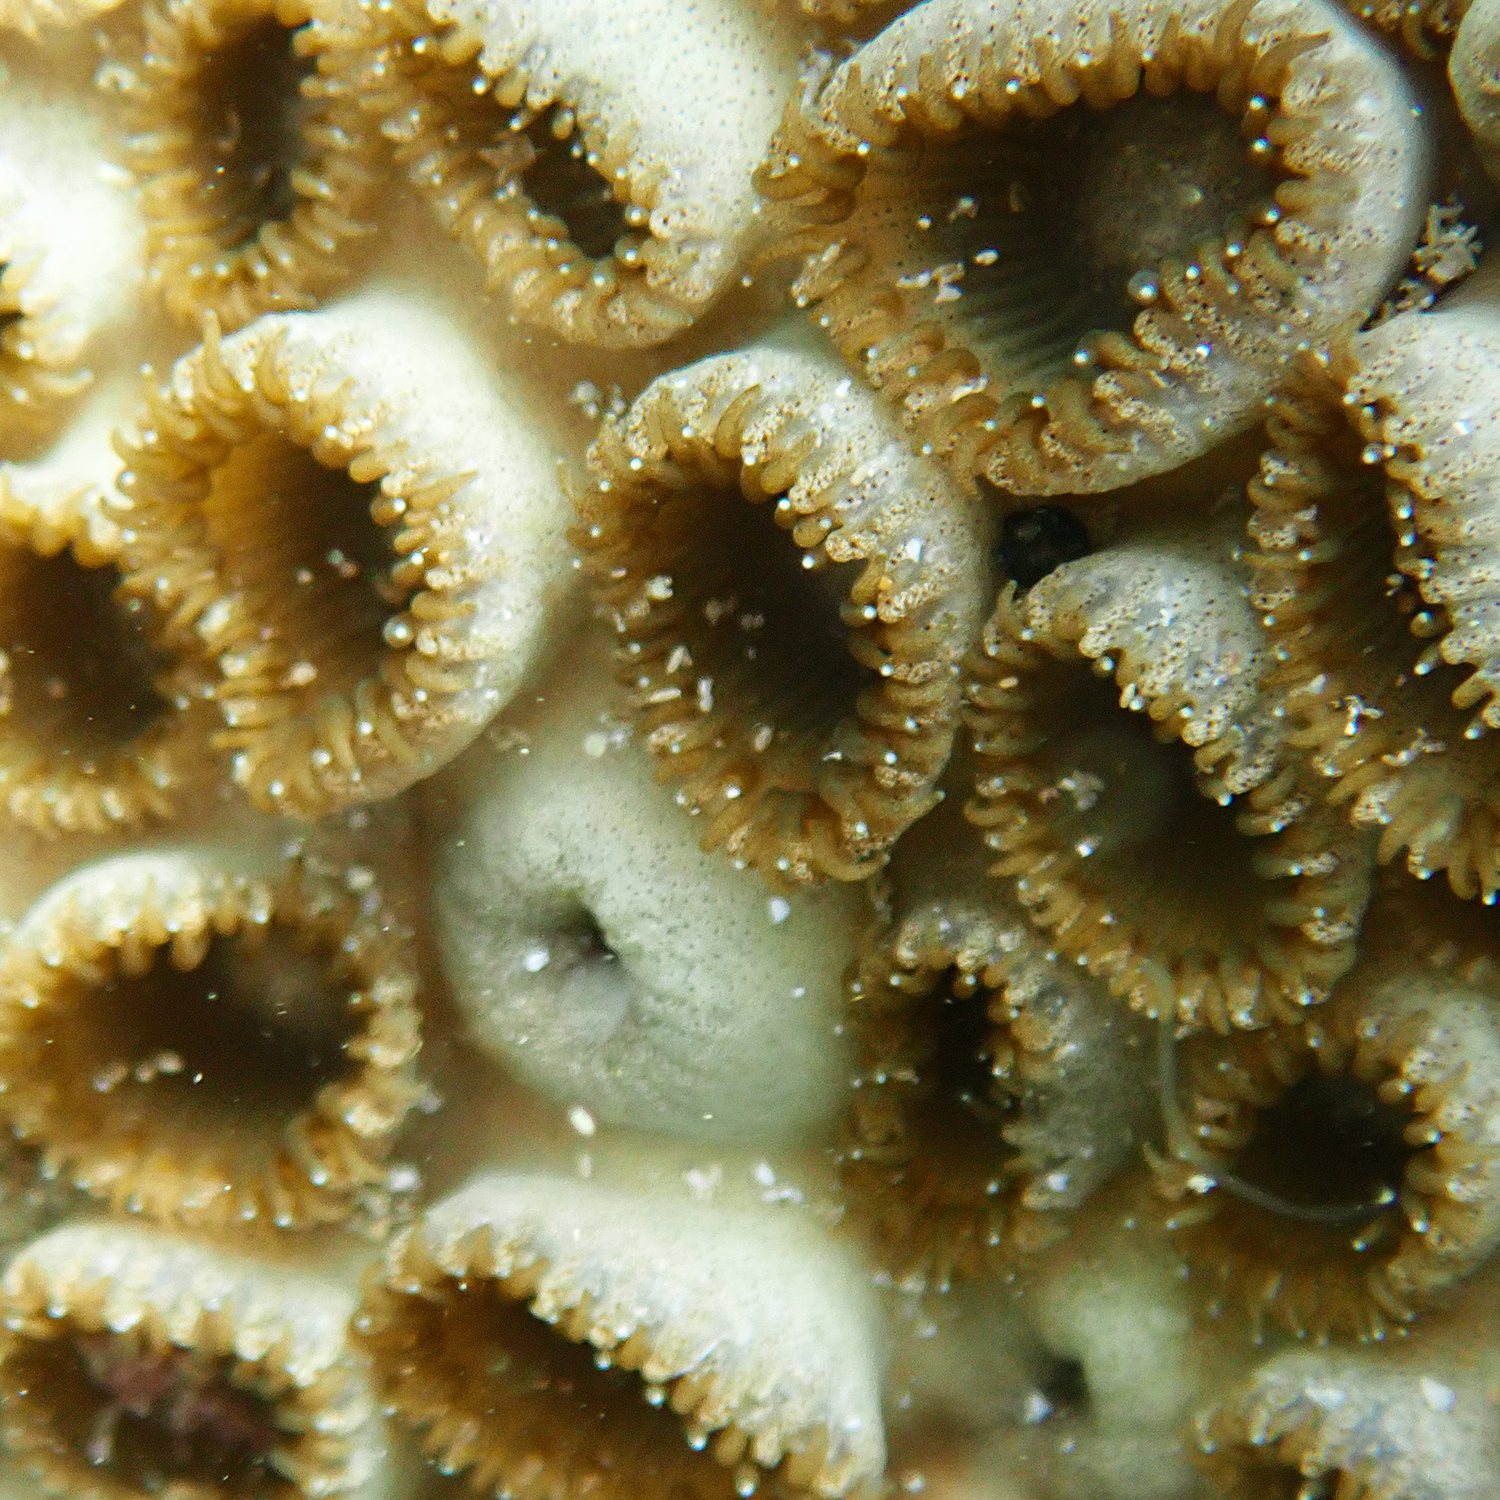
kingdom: Animalia
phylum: Cnidaria
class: Anthozoa
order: Zoantharia
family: Sphenopidae
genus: Palythoa
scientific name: Palythoa tuberculosa
